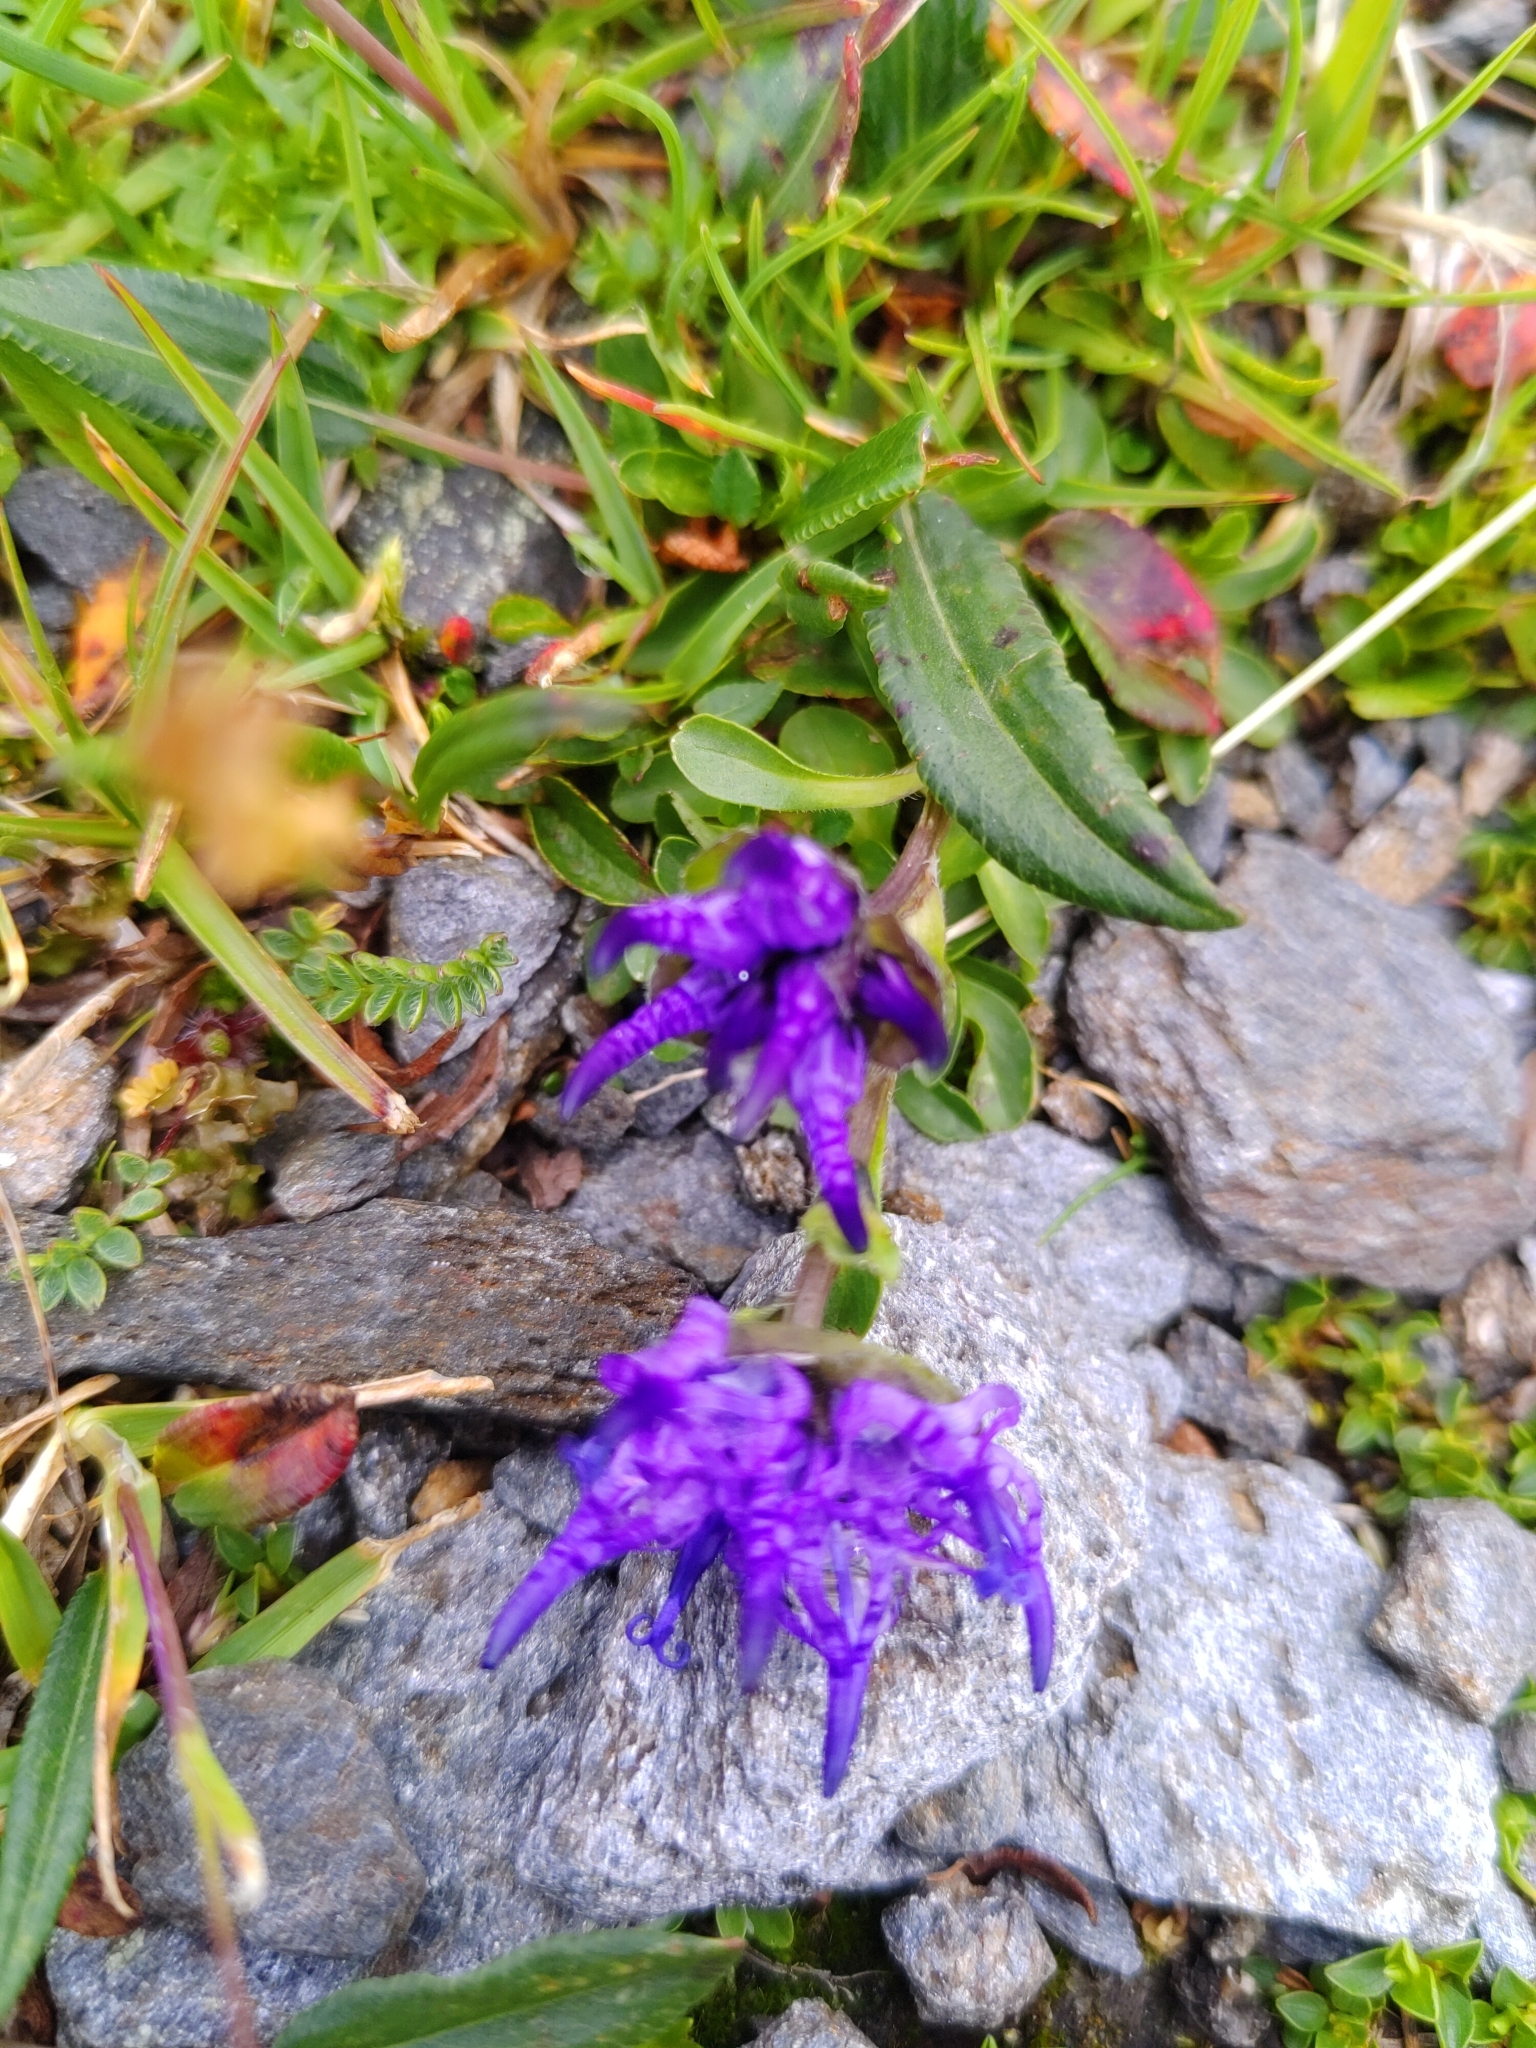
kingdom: Plantae
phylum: Tracheophyta
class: Magnoliopsida
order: Asterales
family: Campanulaceae
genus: Phyteuma
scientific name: Phyteuma globulariifolium
